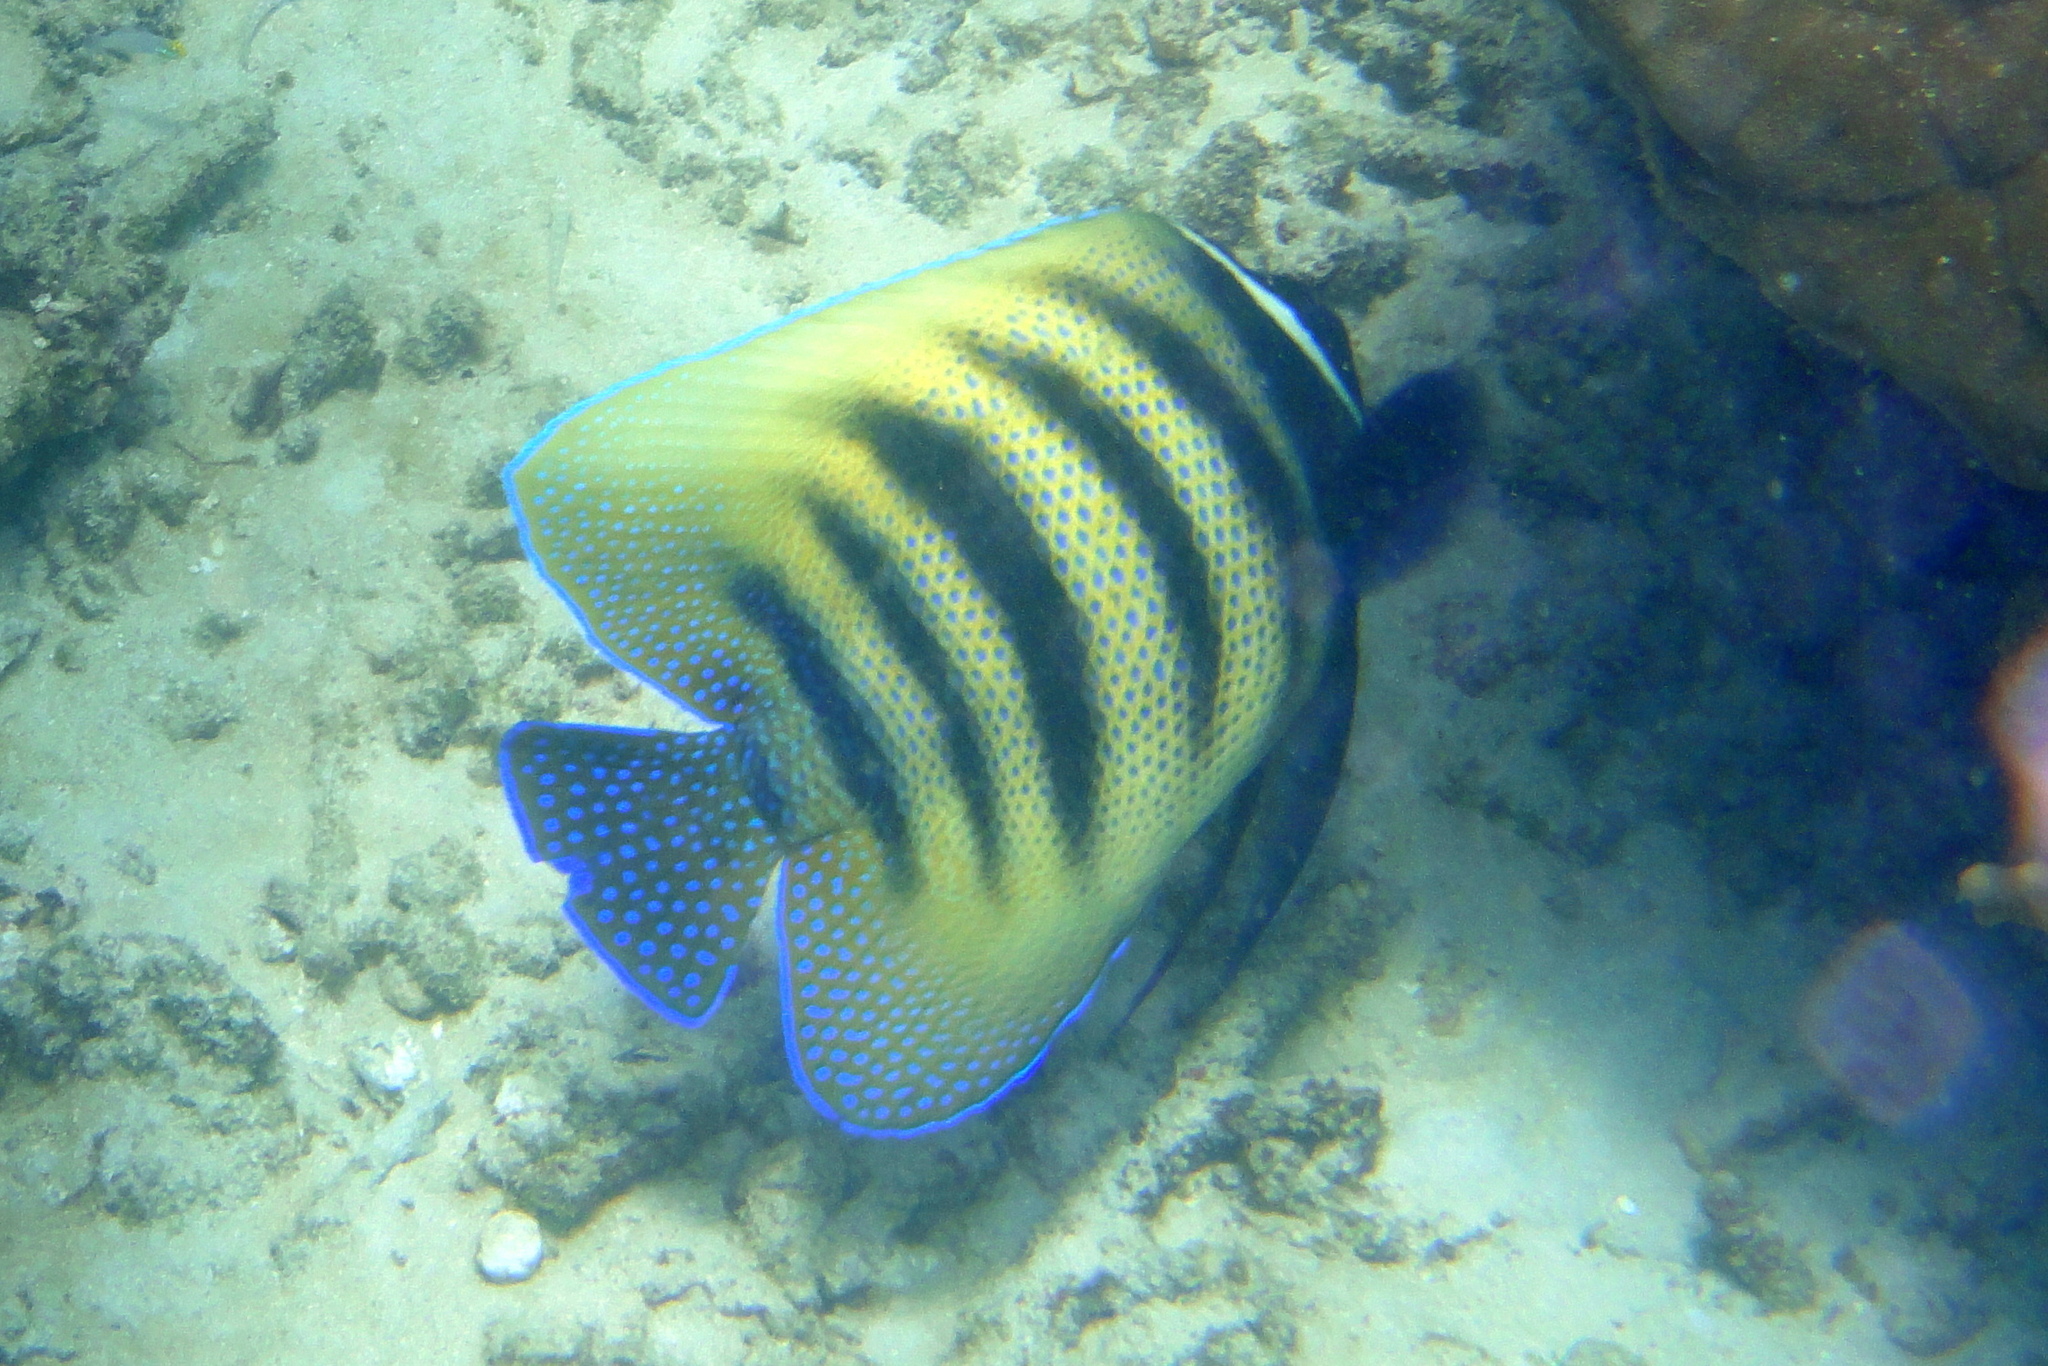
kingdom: Animalia
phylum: Chordata
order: Perciformes
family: Pomacanthidae
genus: Pomacanthus
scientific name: Pomacanthus sexstriatus
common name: Six-banded angelfish
